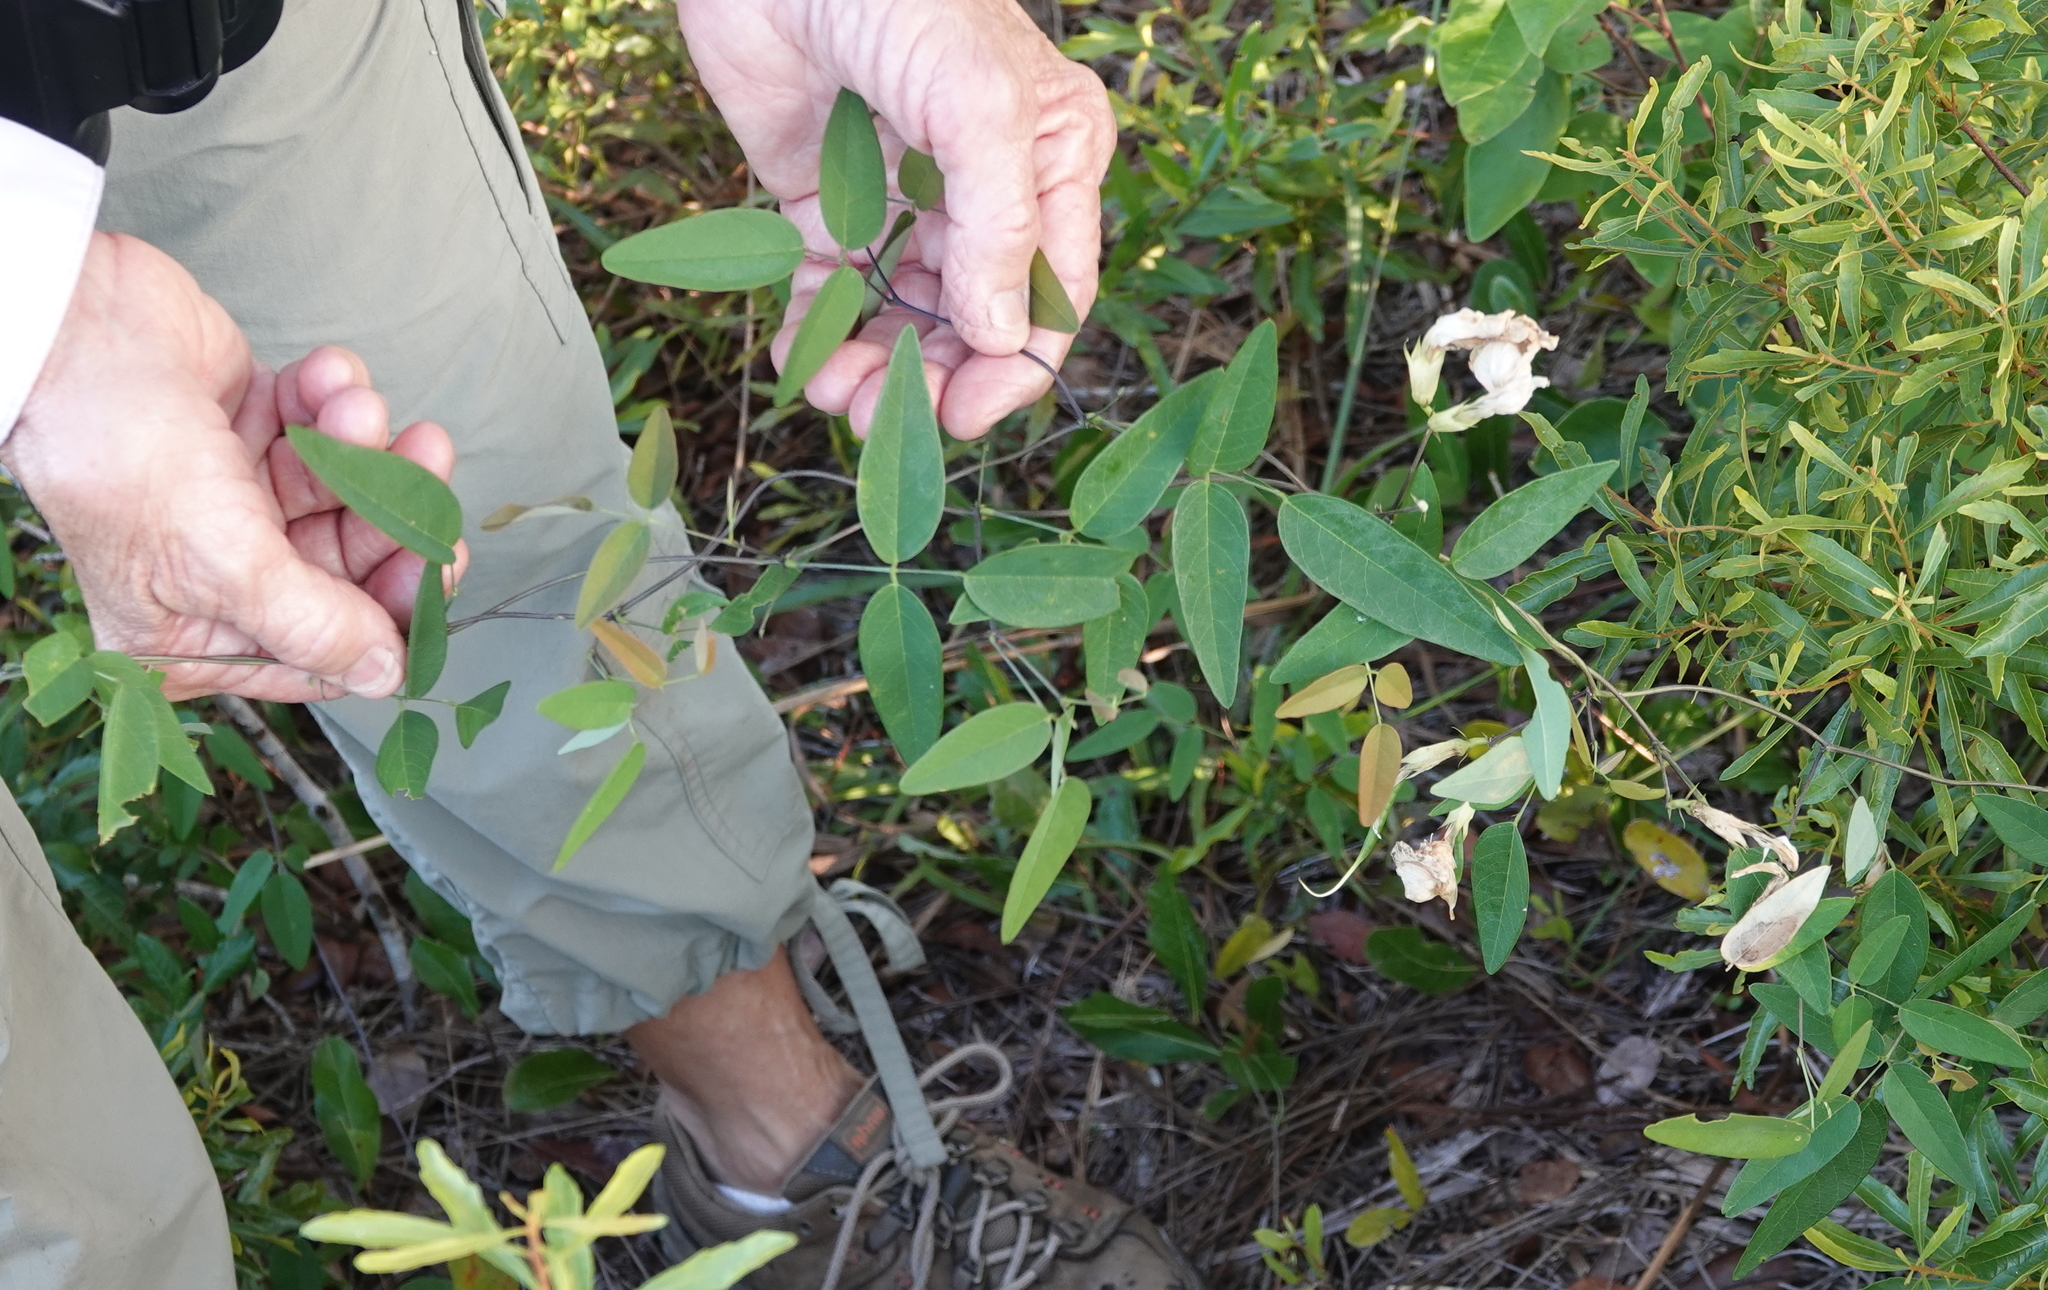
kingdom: Plantae
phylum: Tracheophyta
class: Magnoliopsida
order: Fabales
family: Fabaceae
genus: Clitoria
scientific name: Clitoria mariana
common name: Butterfly-pea
